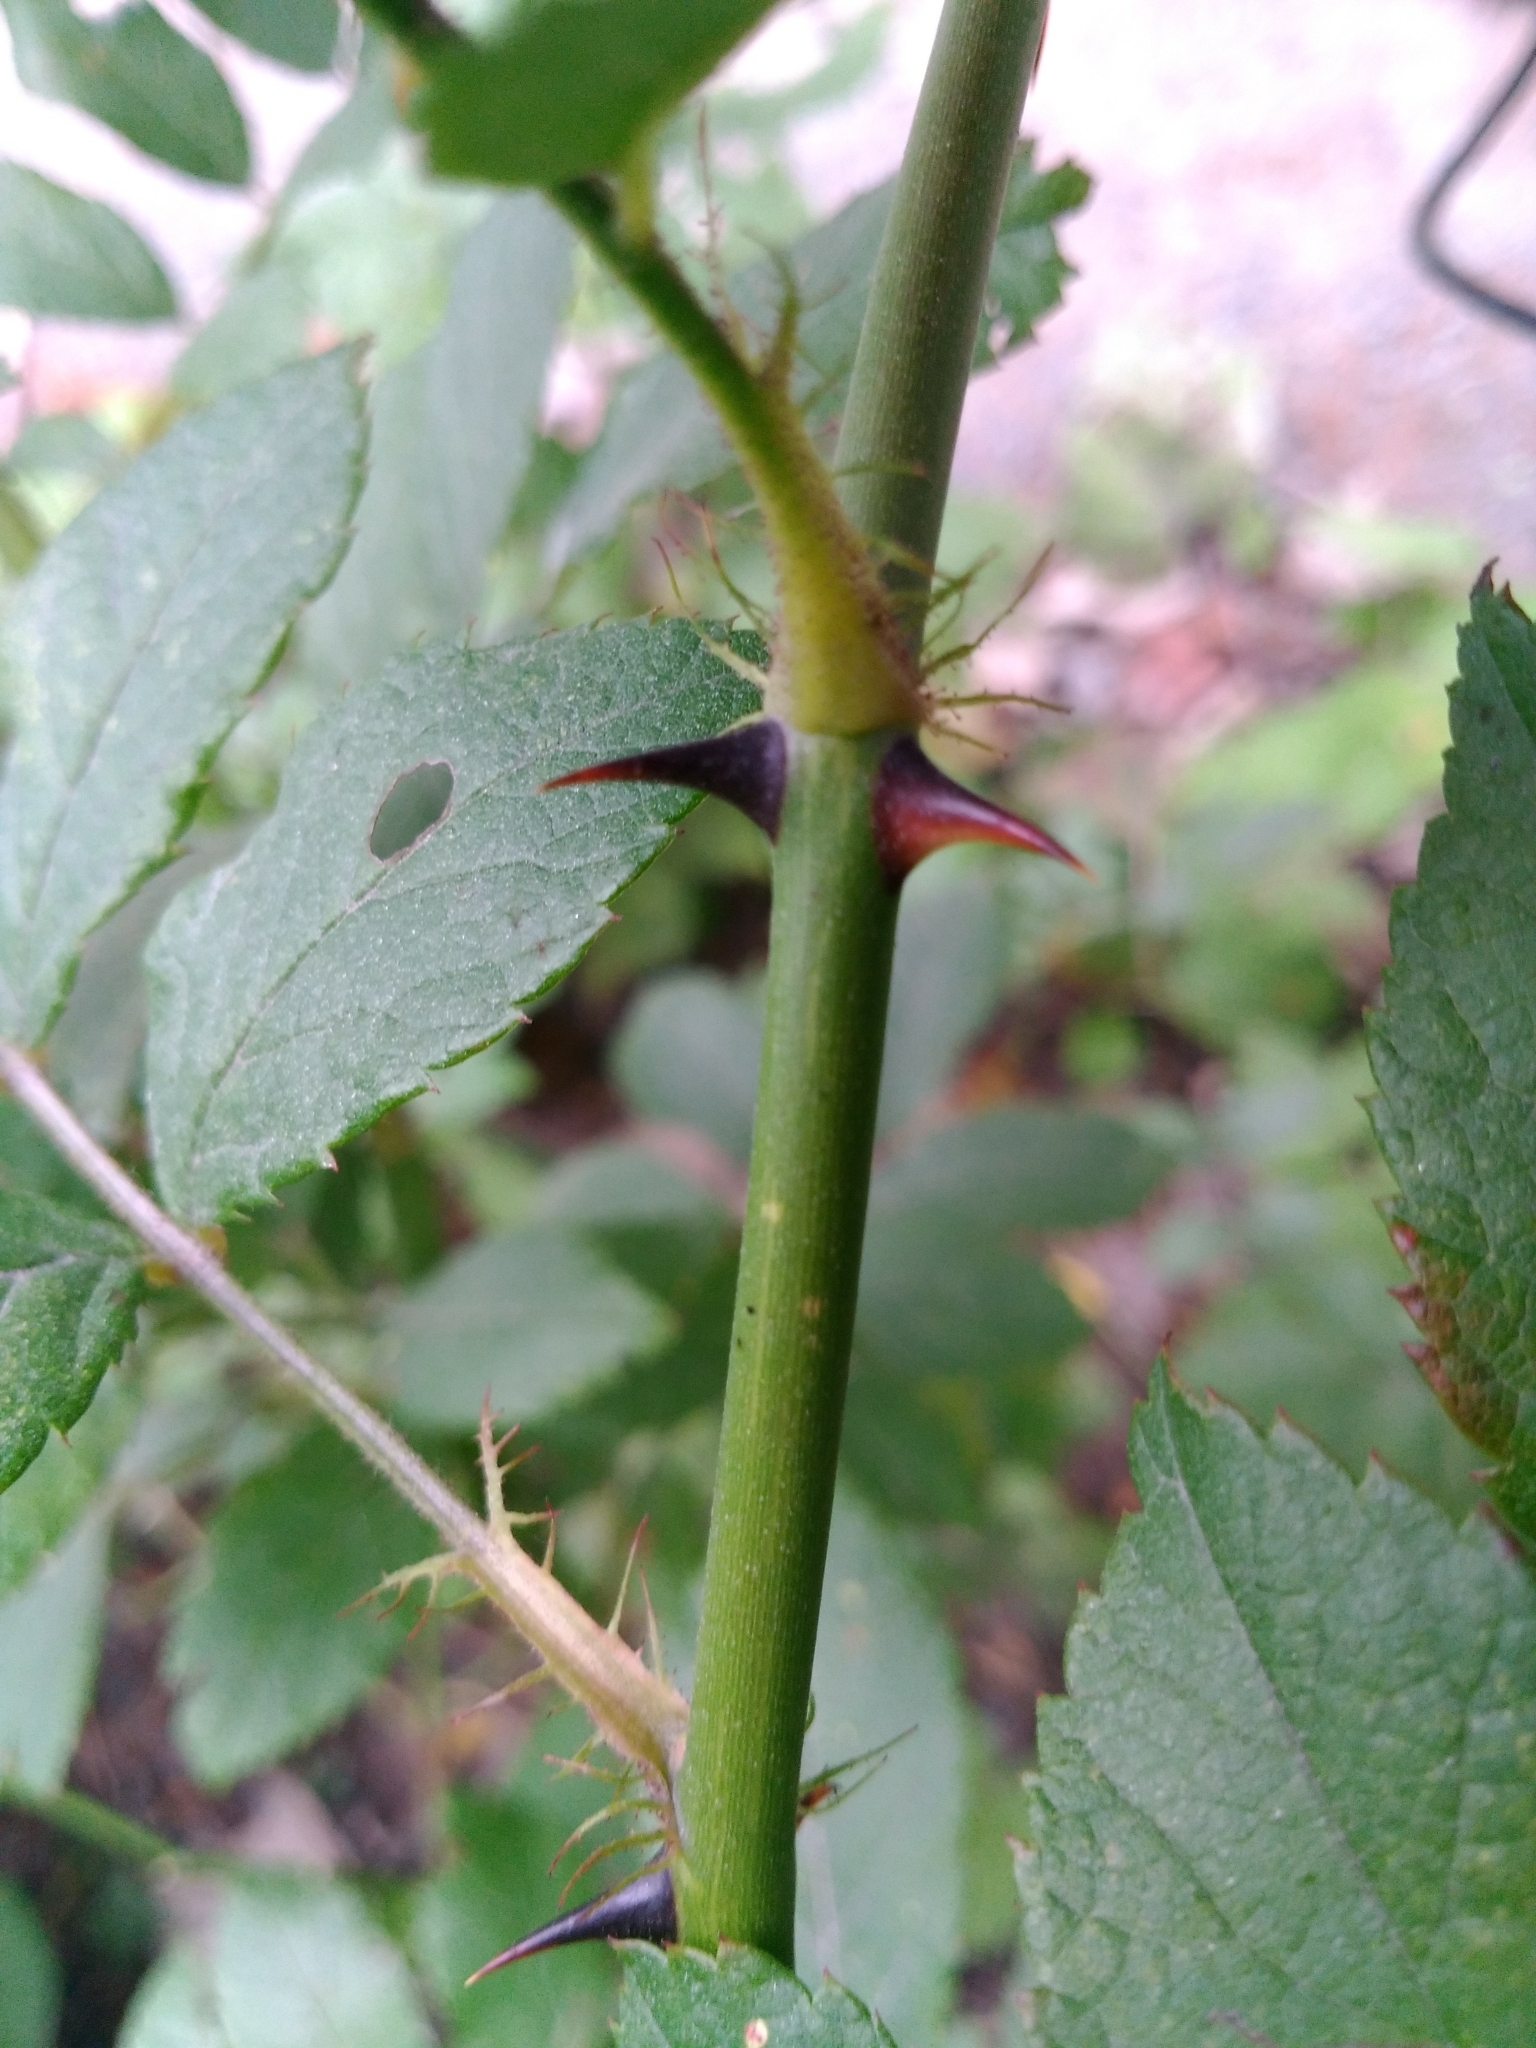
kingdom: Plantae
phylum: Tracheophyta
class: Magnoliopsida
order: Rosales
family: Rosaceae
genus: Rosa
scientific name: Rosa multiflora
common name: Multiflora rose
